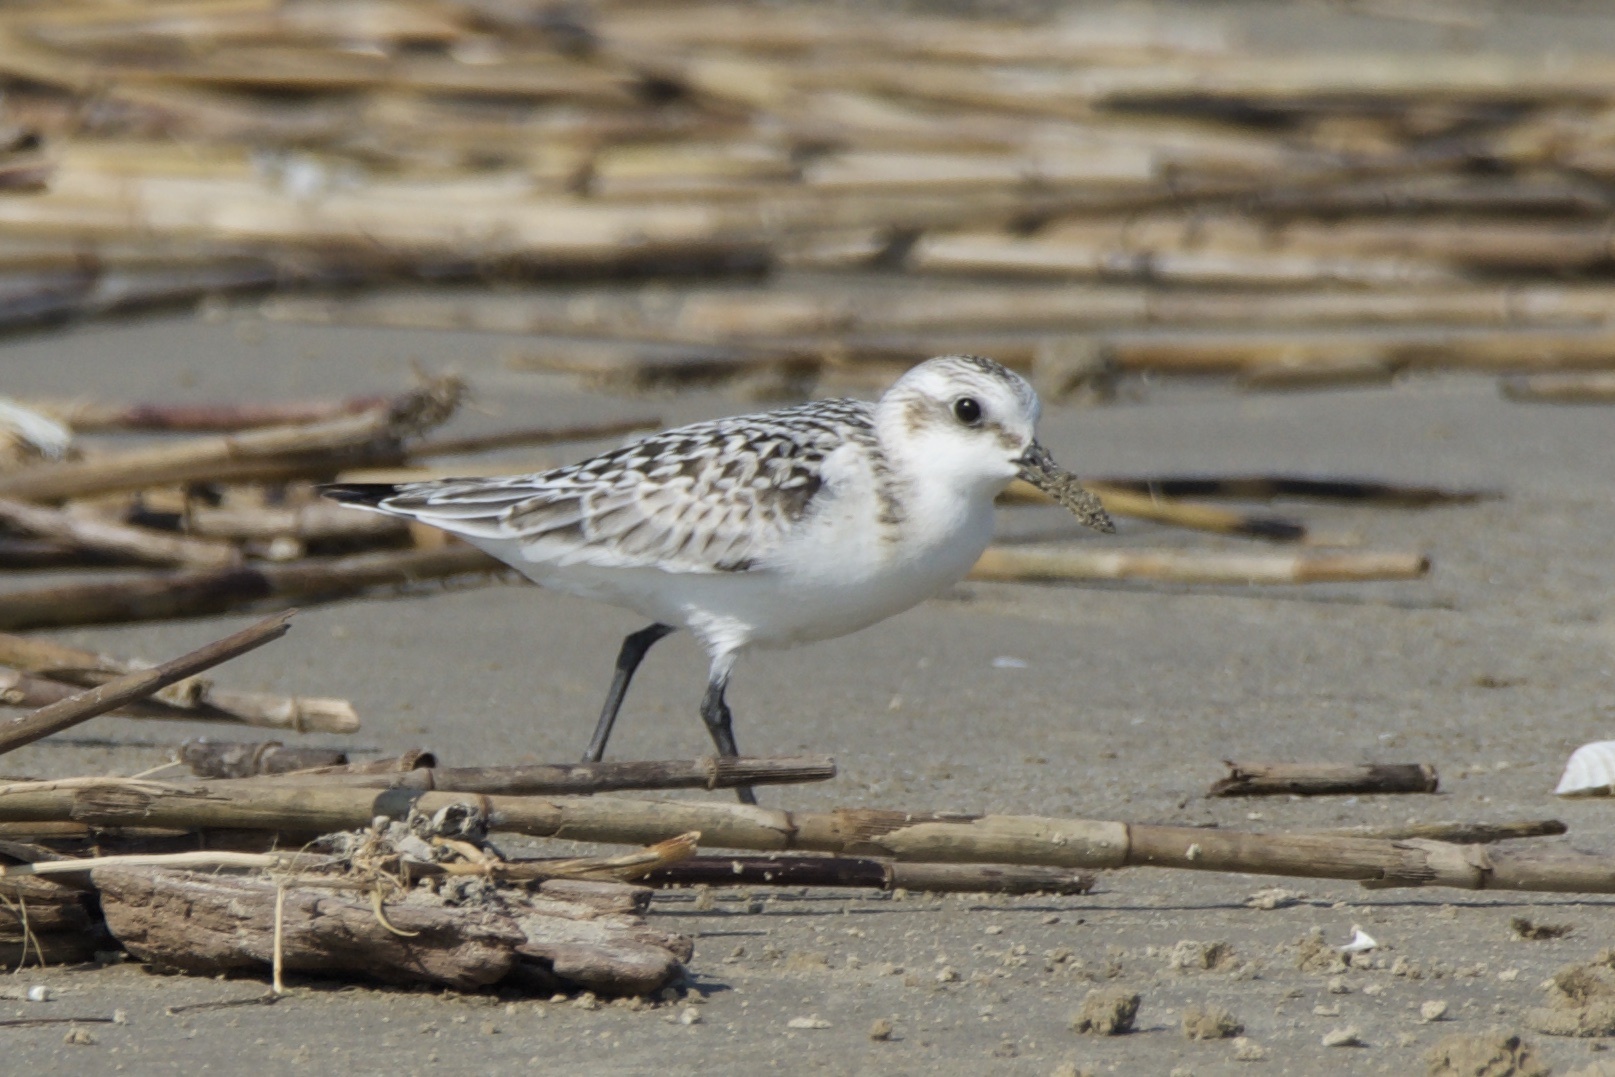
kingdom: Animalia
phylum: Chordata
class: Aves
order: Charadriiformes
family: Scolopacidae
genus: Calidris
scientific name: Calidris alba
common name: Sanderling
